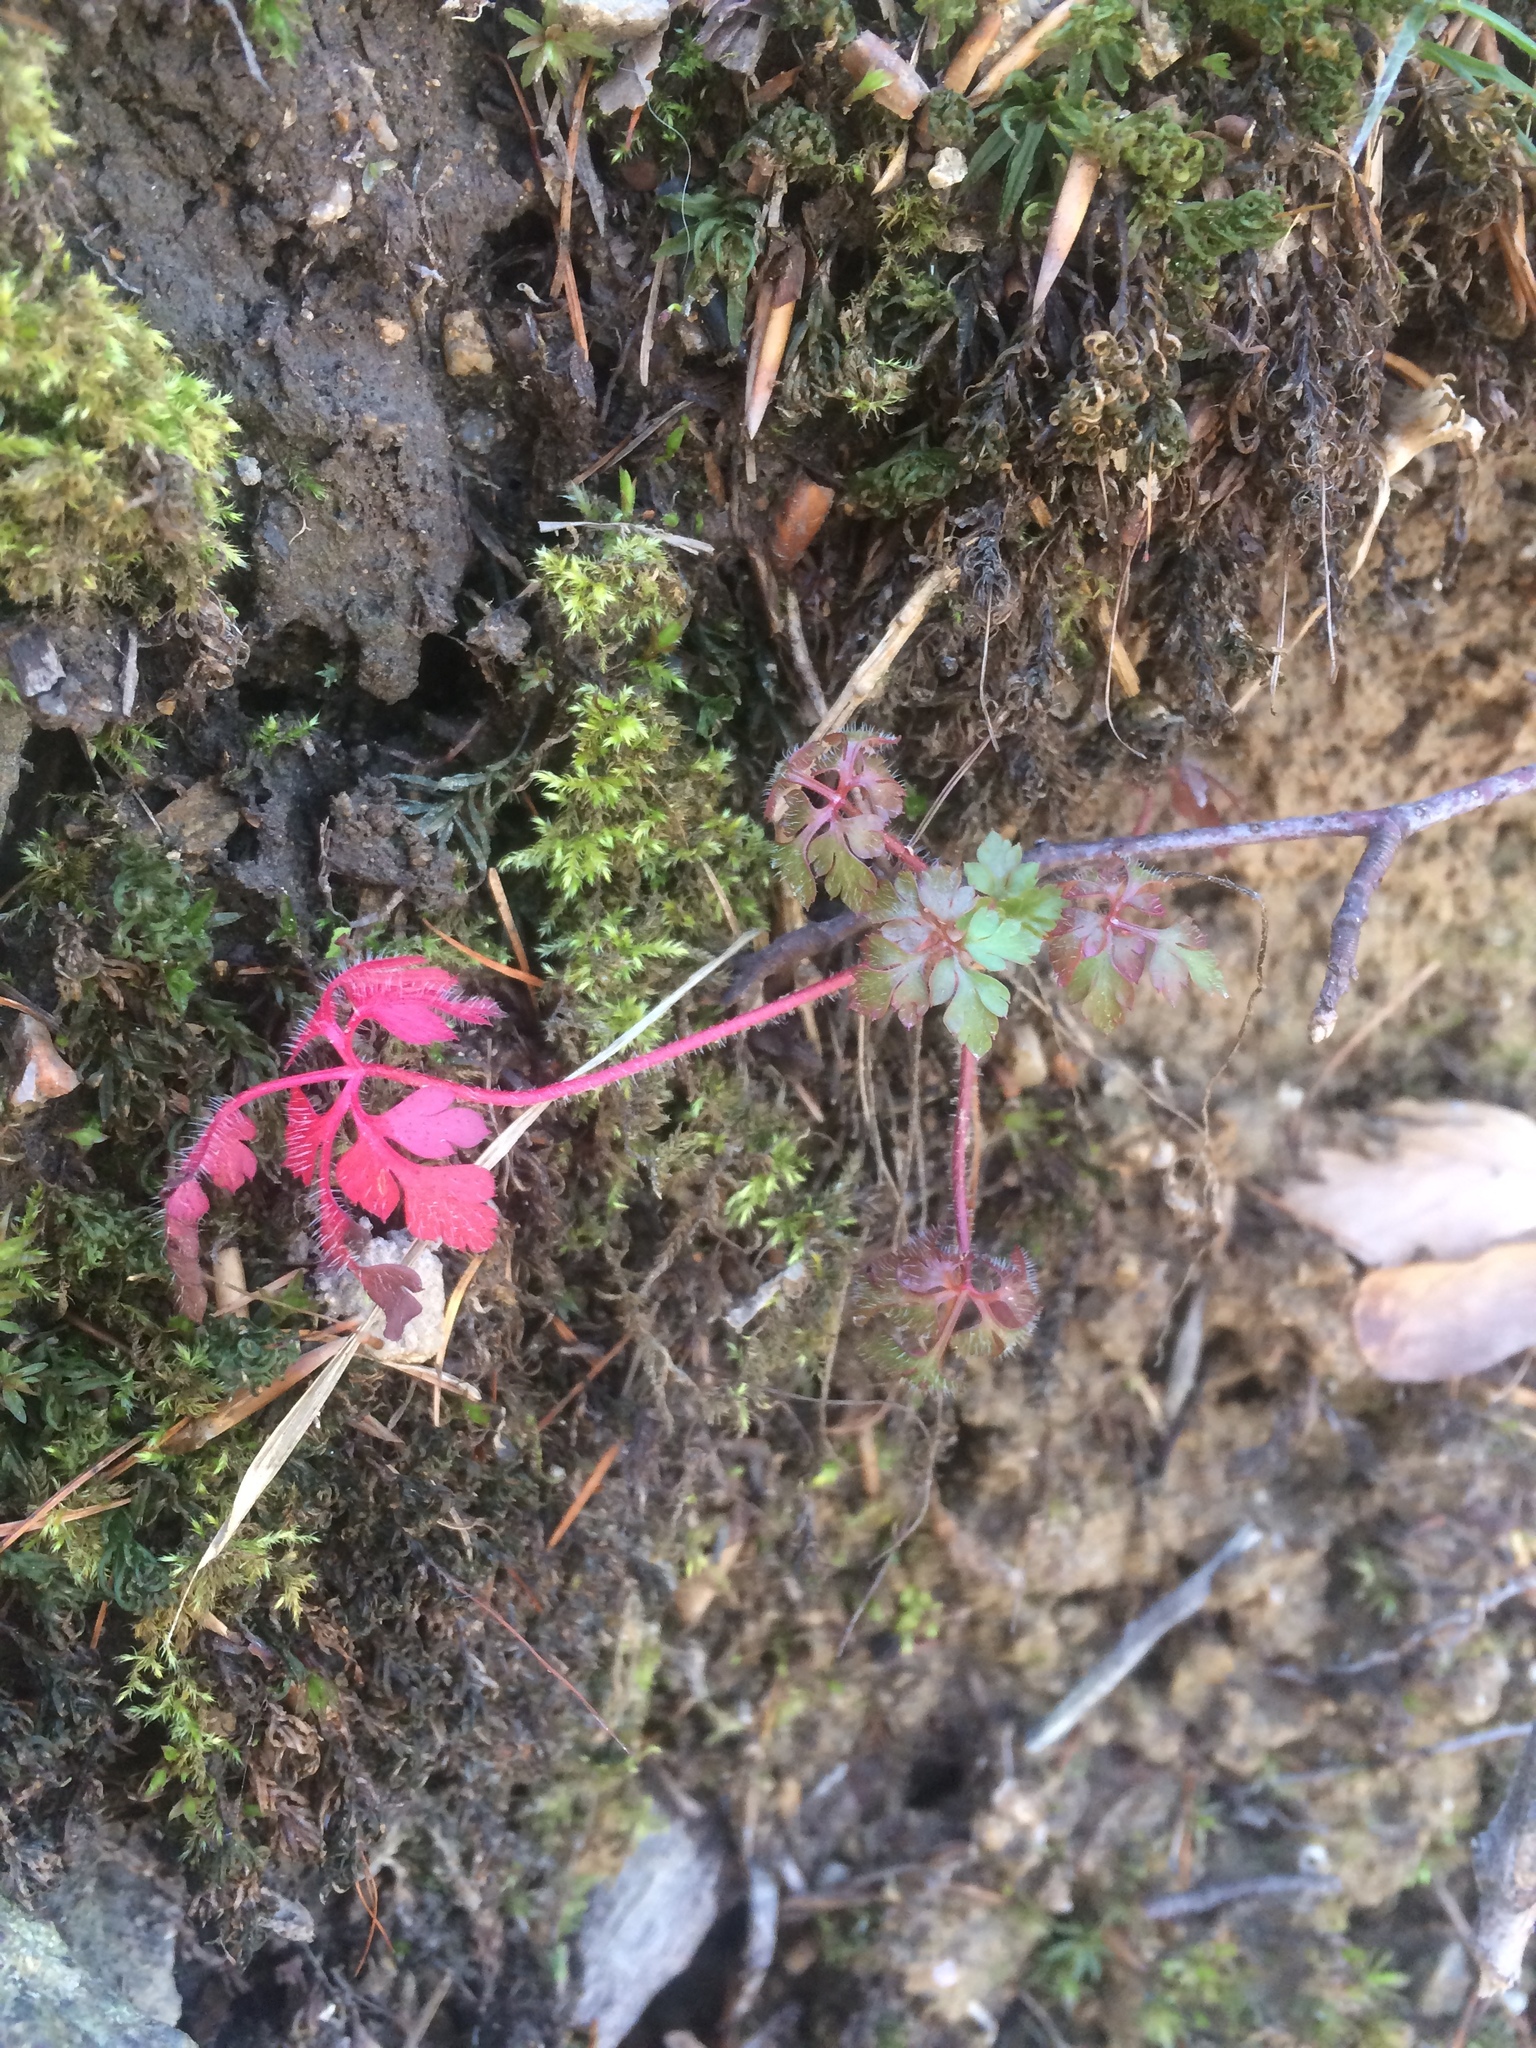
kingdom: Plantae
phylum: Tracheophyta
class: Magnoliopsida
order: Geraniales
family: Geraniaceae
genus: Geranium
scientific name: Geranium robertianum
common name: Herb-robert
